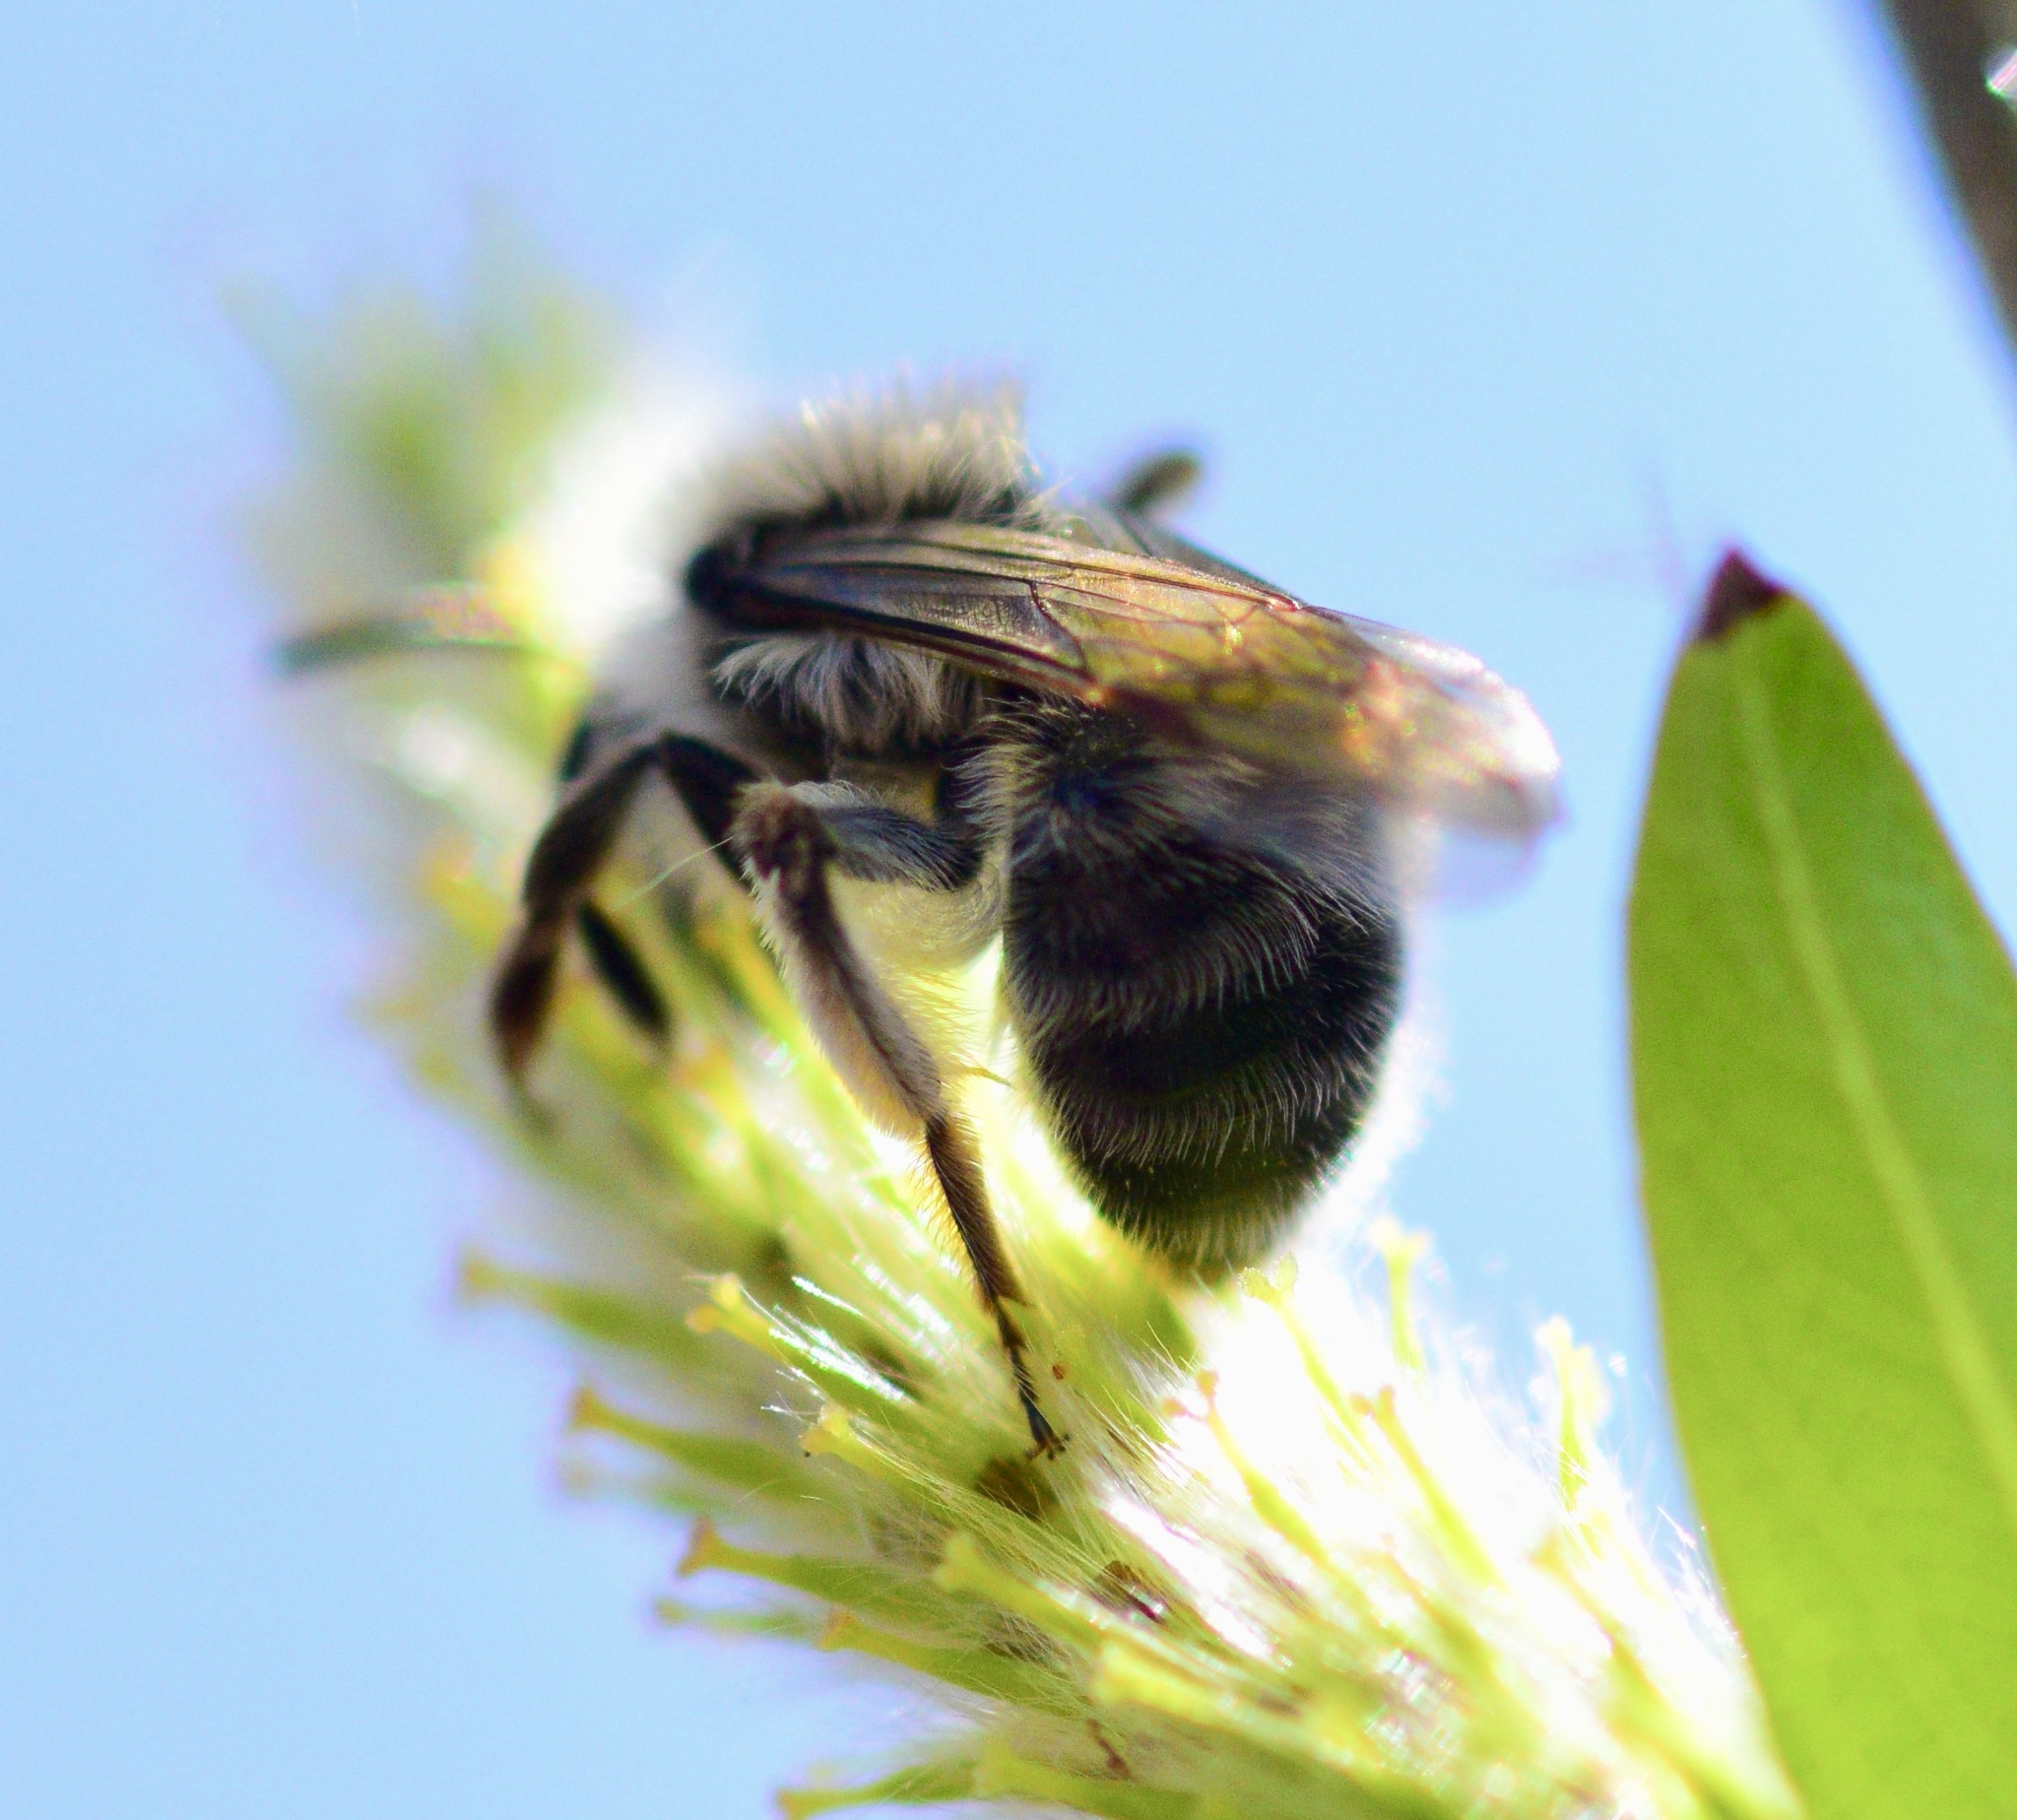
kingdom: Animalia
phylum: Arthropoda
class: Insecta
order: Hymenoptera
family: Andrenidae
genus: Andrena
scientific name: Andrena frigida
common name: Frigid mining bee
